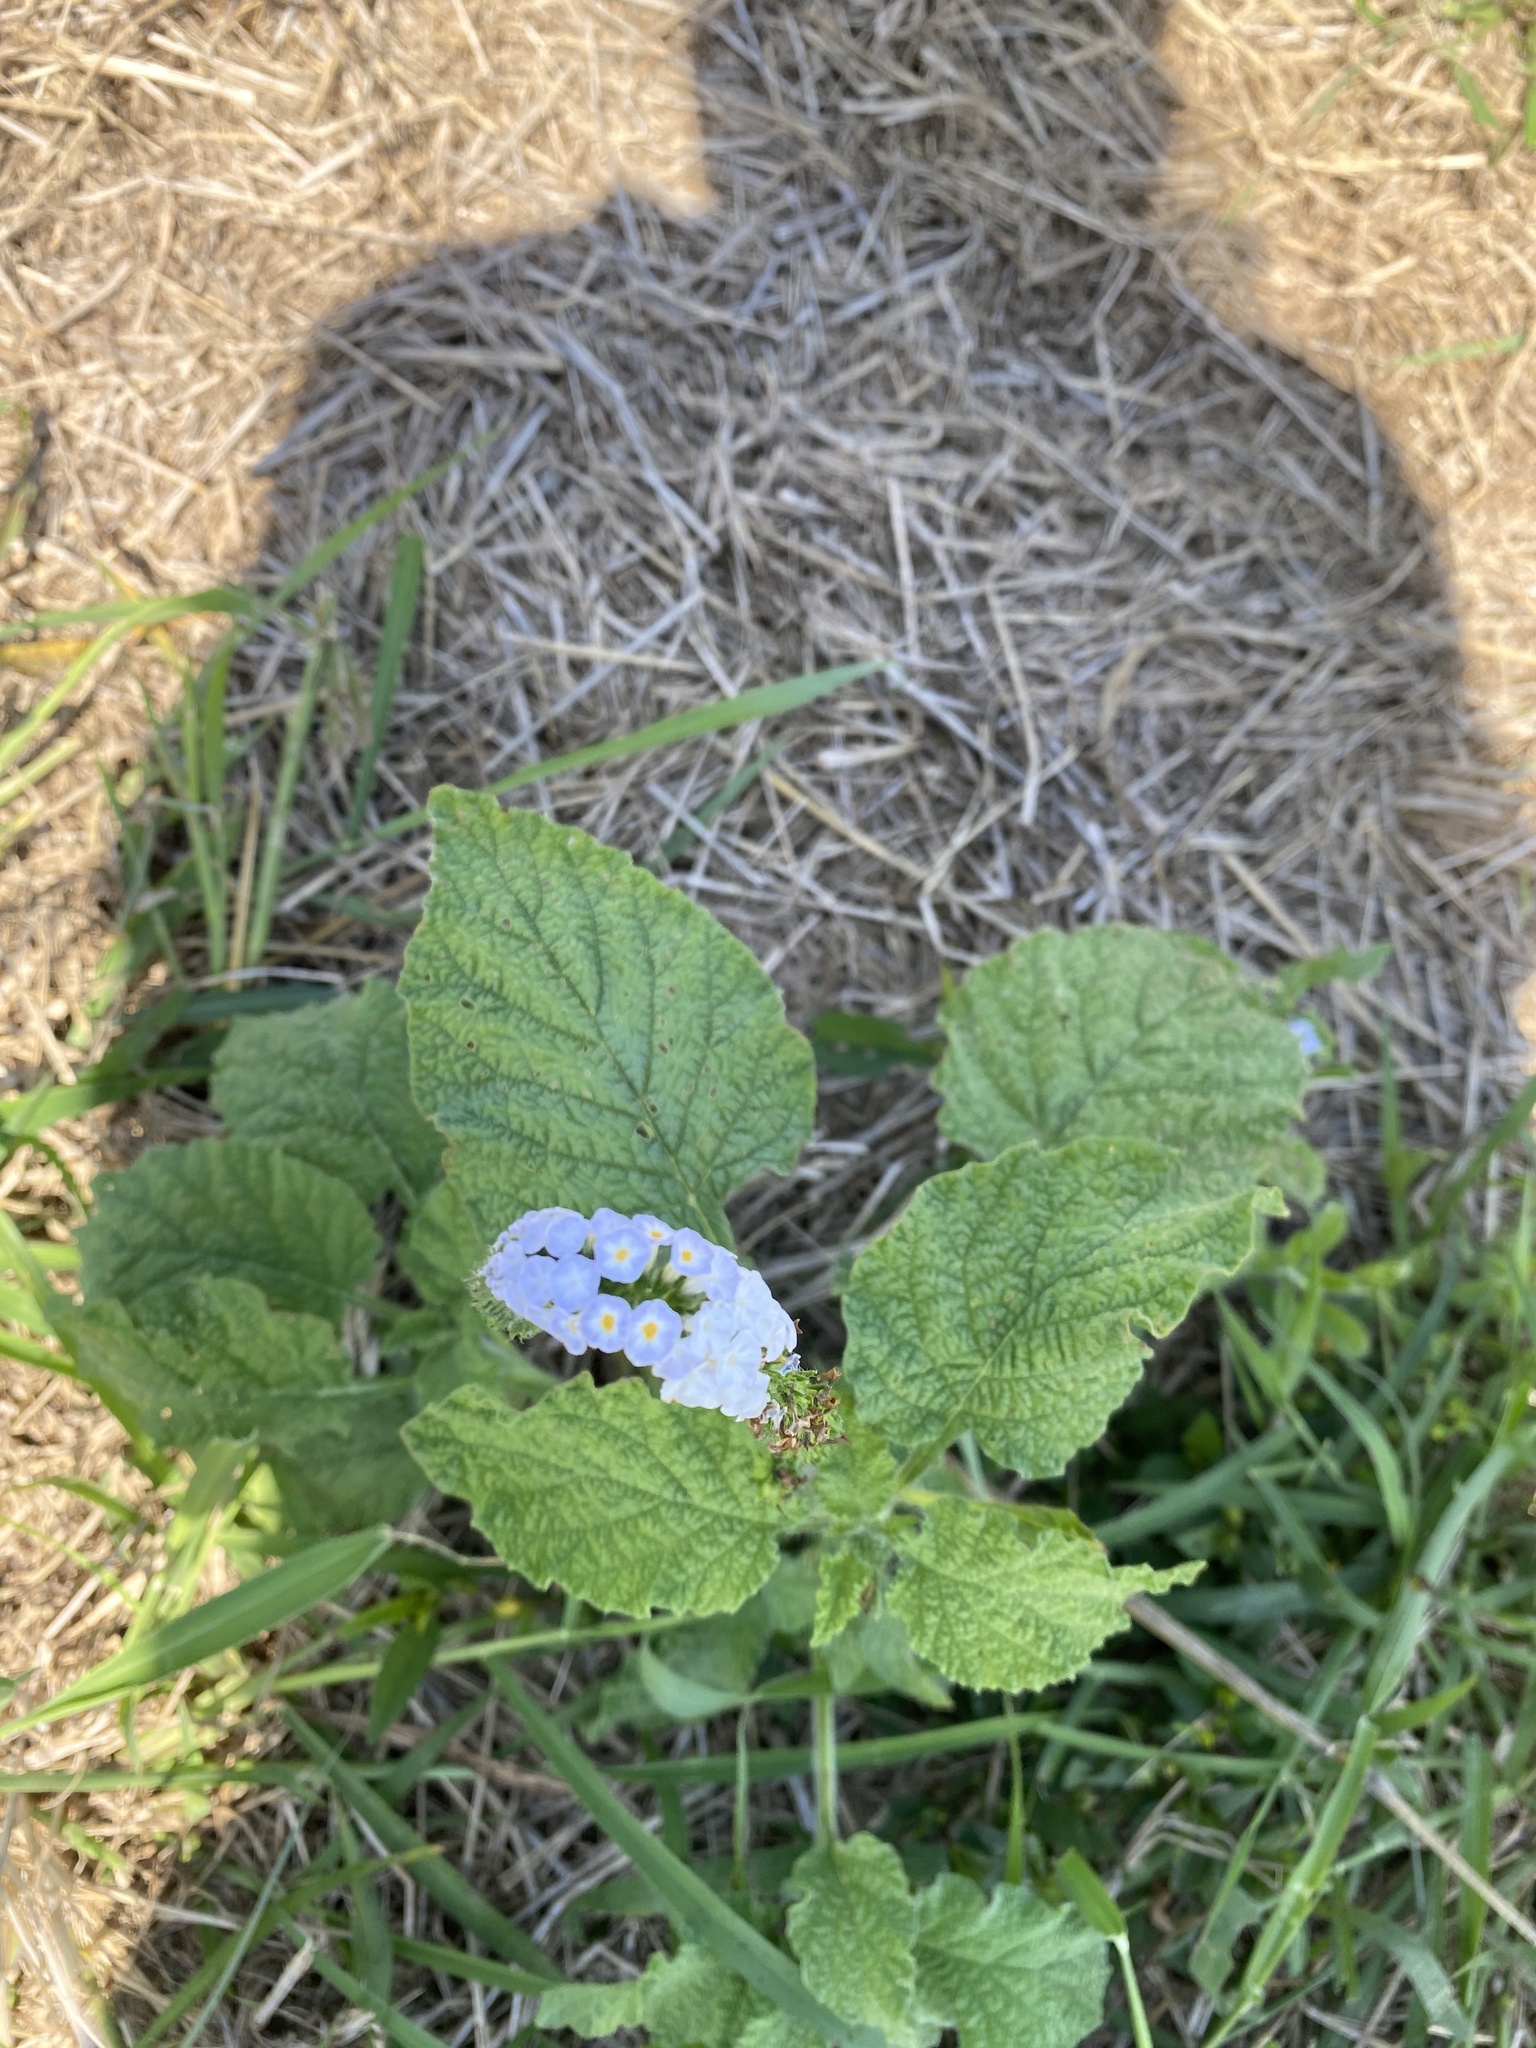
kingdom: Plantae
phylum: Tracheophyta
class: Magnoliopsida
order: Boraginales
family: Heliotropiaceae
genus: Heliotropium
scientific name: Heliotropium indicum
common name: Indian heliotrope
